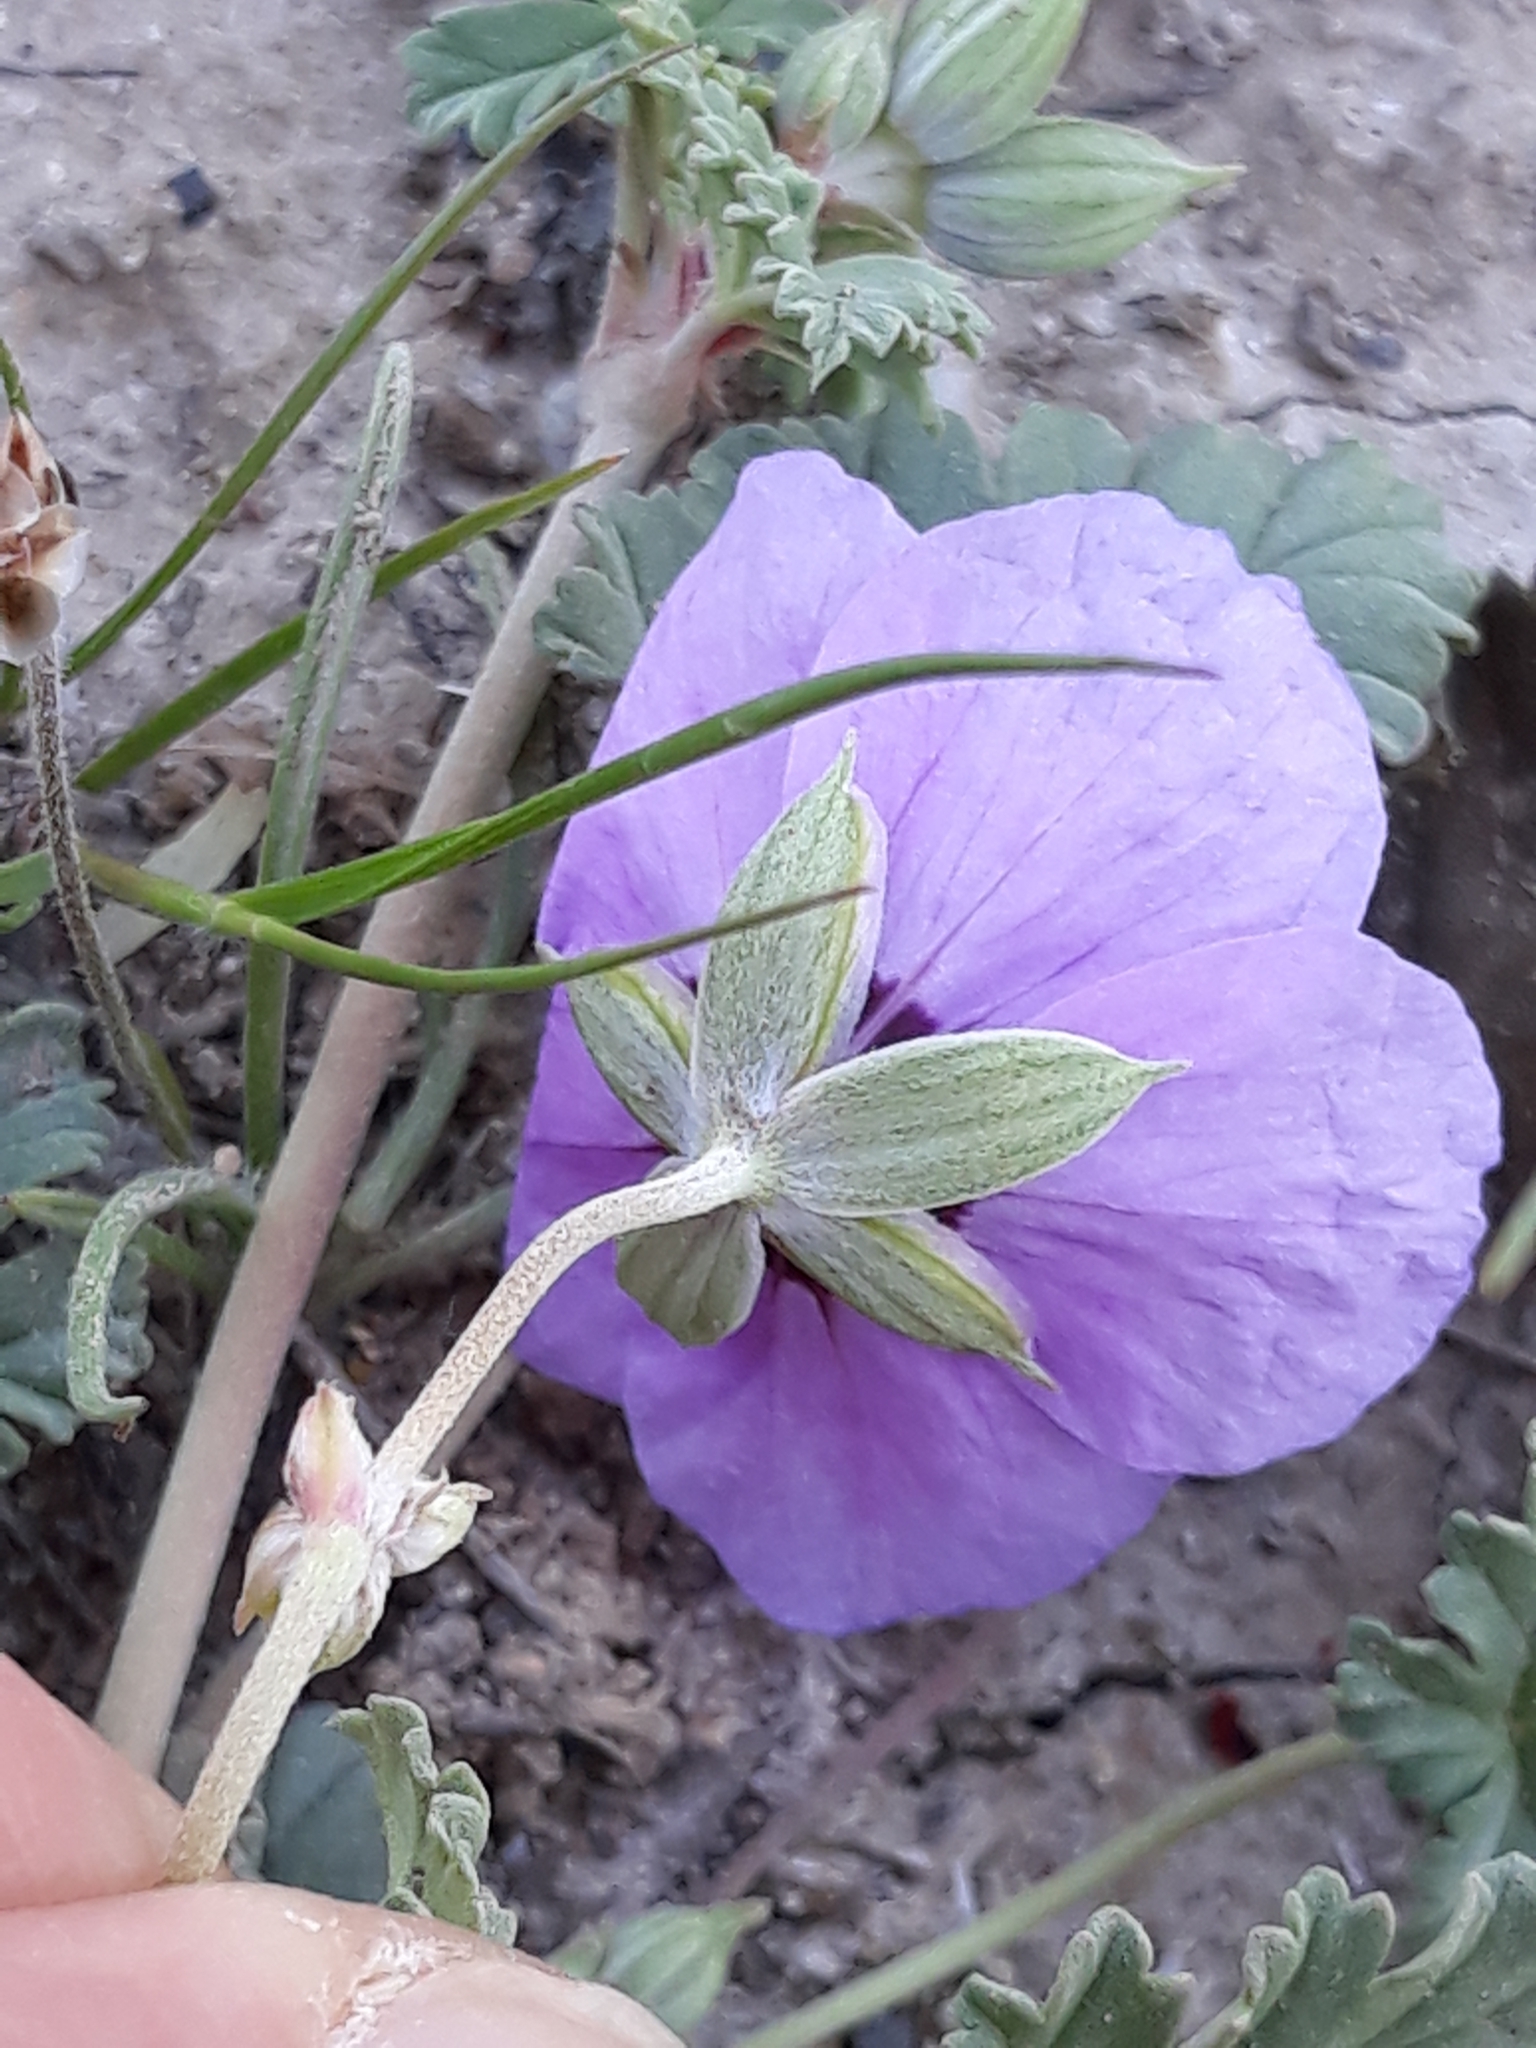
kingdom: Plantae
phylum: Tracheophyta
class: Magnoliopsida
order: Geraniales
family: Geraniaceae
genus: Erodium
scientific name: Erodium guttatum
